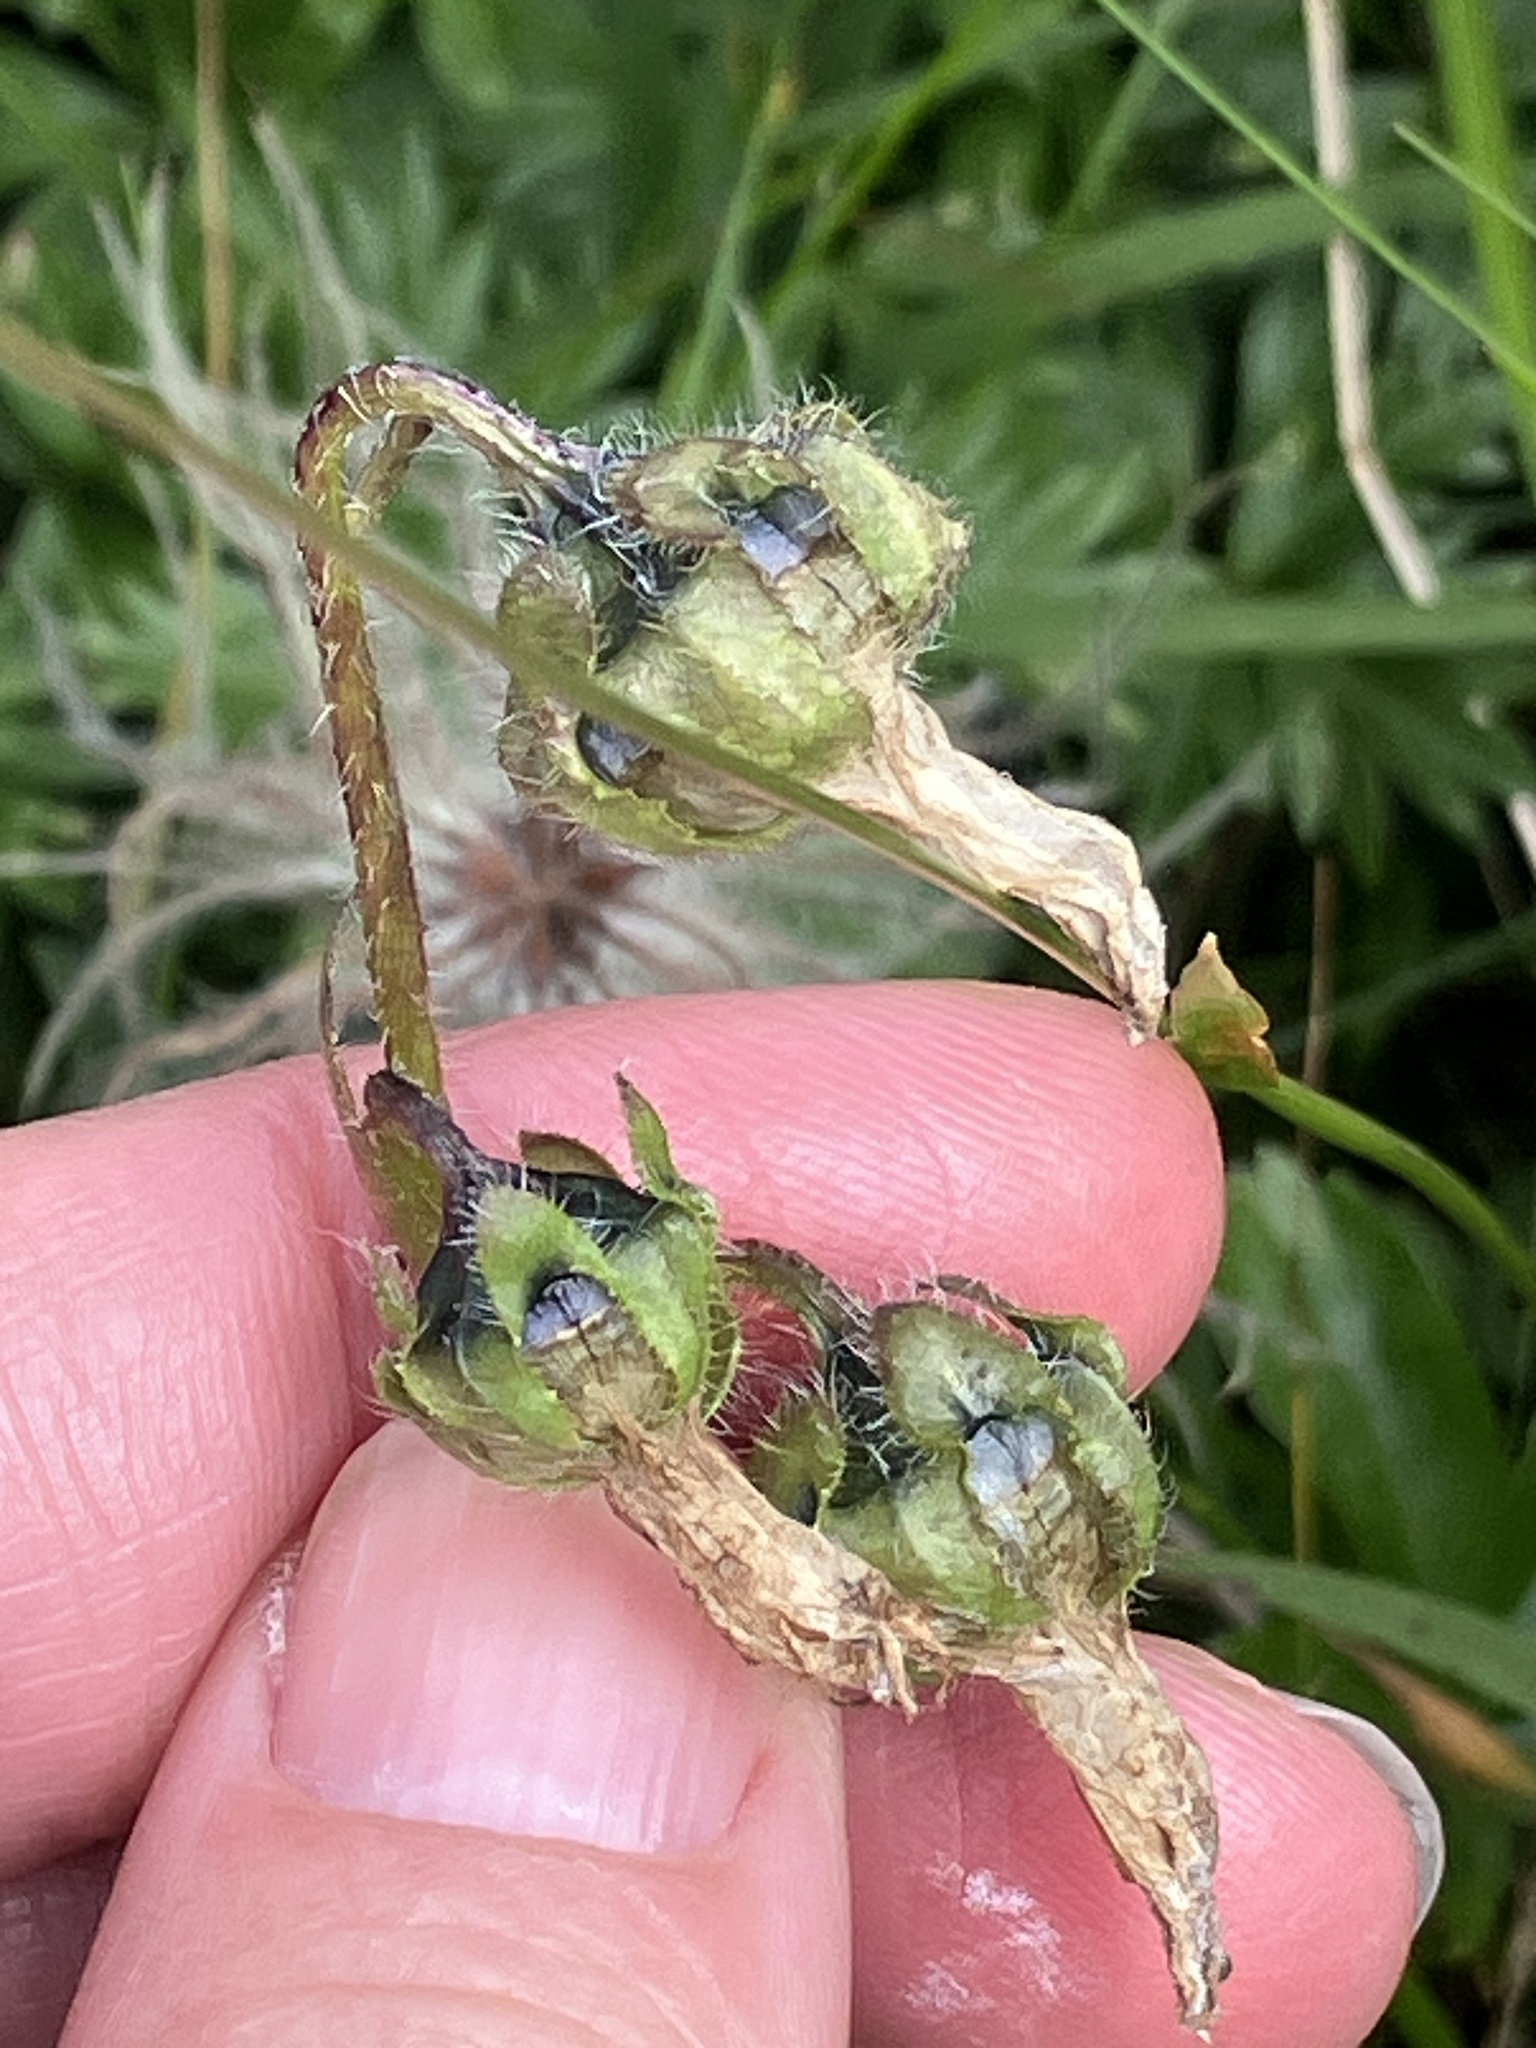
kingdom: Plantae
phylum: Tracheophyta
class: Magnoliopsida
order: Asterales
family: Campanulaceae
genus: Campanula
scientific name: Campanula barbata
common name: Bearded bellflower
